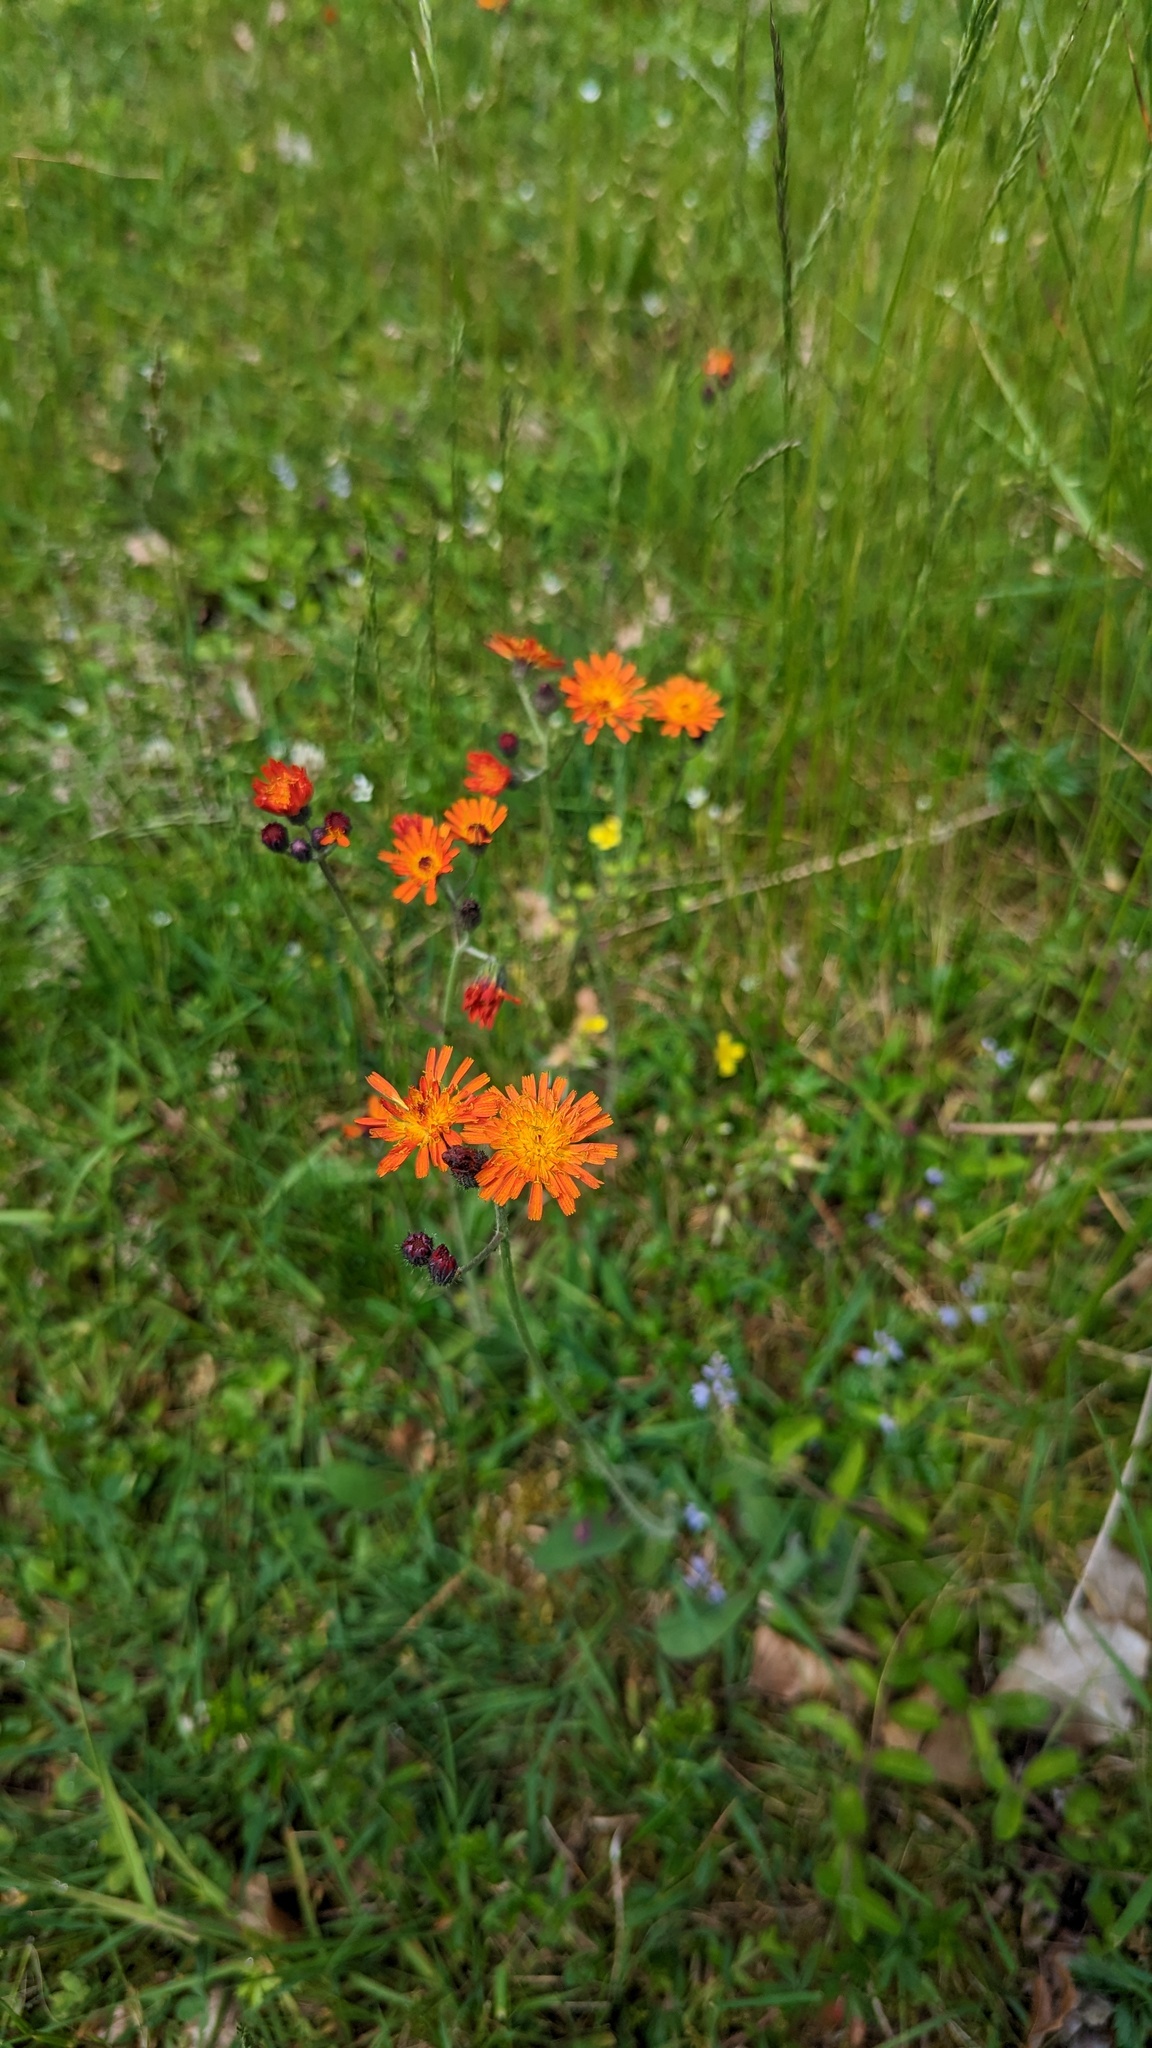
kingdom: Plantae
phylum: Tracheophyta
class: Magnoliopsida
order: Asterales
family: Asteraceae
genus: Pilosella
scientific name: Pilosella aurantiaca
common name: Fox-and-cubs
